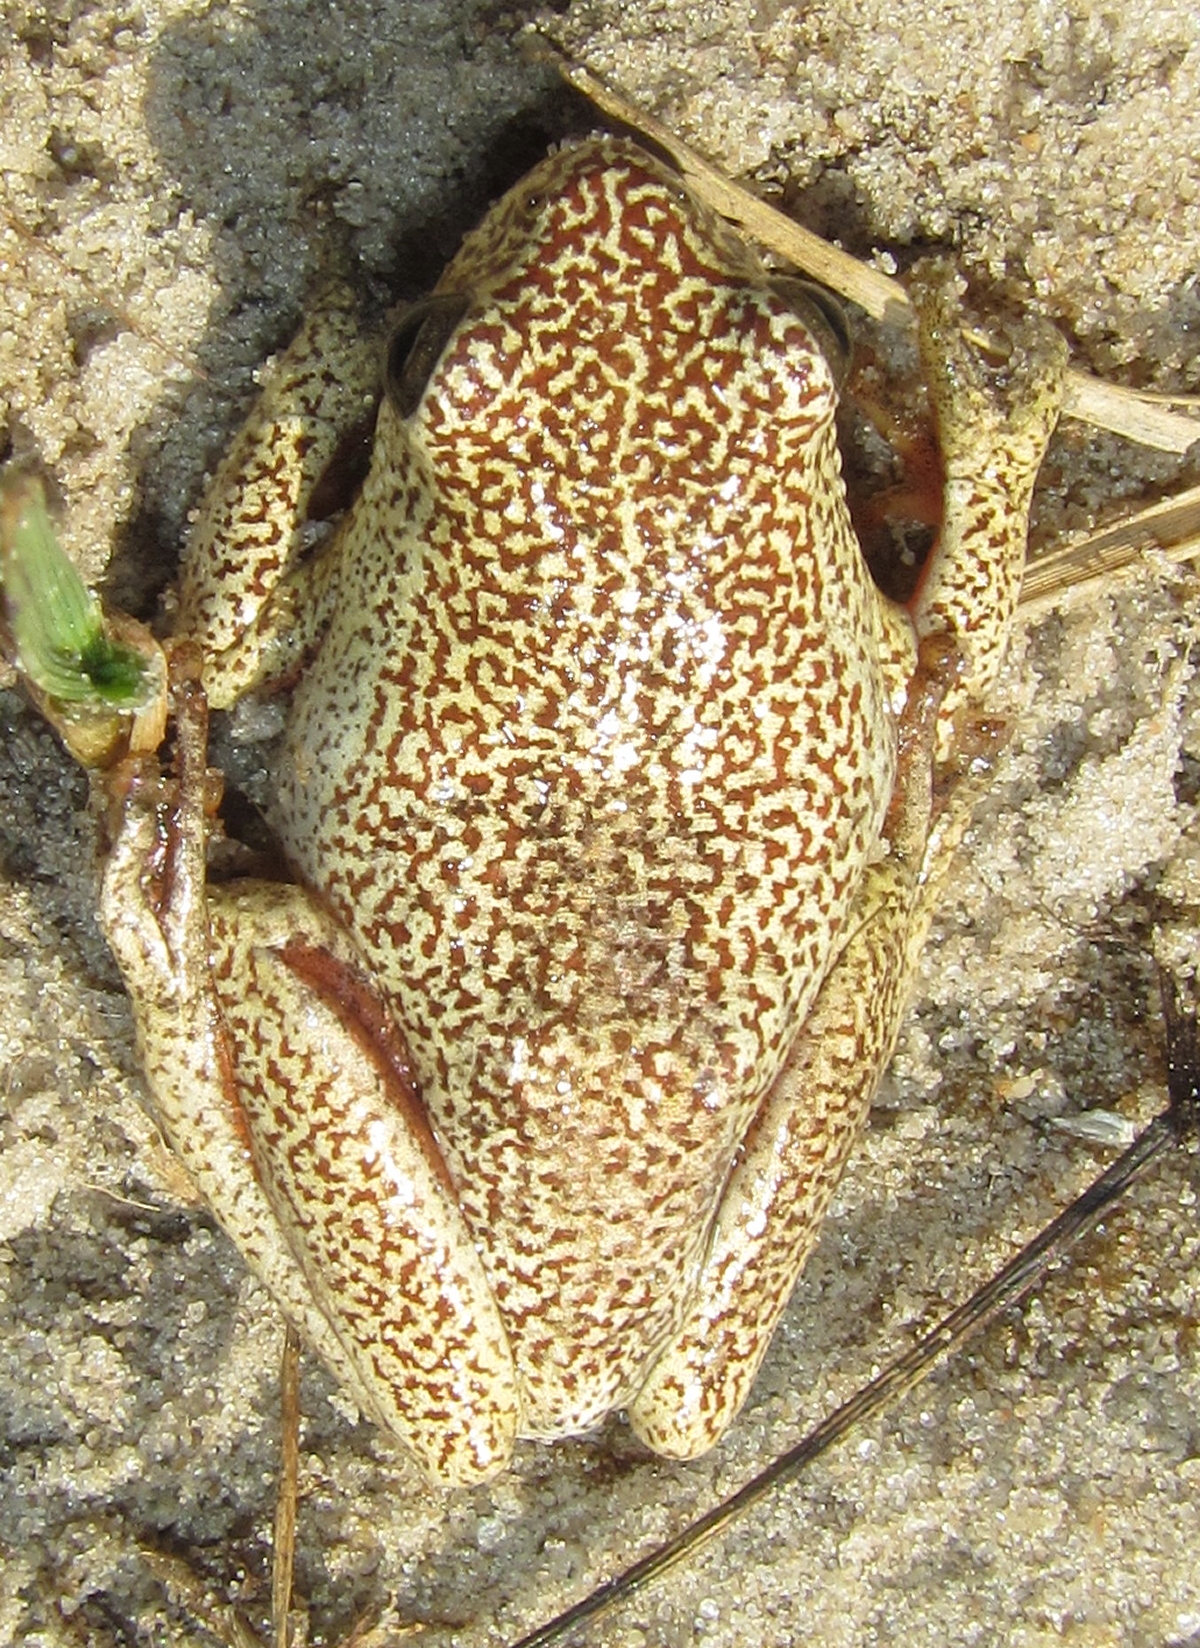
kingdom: Animalia
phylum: Chordata
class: Amphibia
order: Anura
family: Hyperoliidae
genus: Hyperolius
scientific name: Hyperolius parallelus
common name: Angolan reed frog
